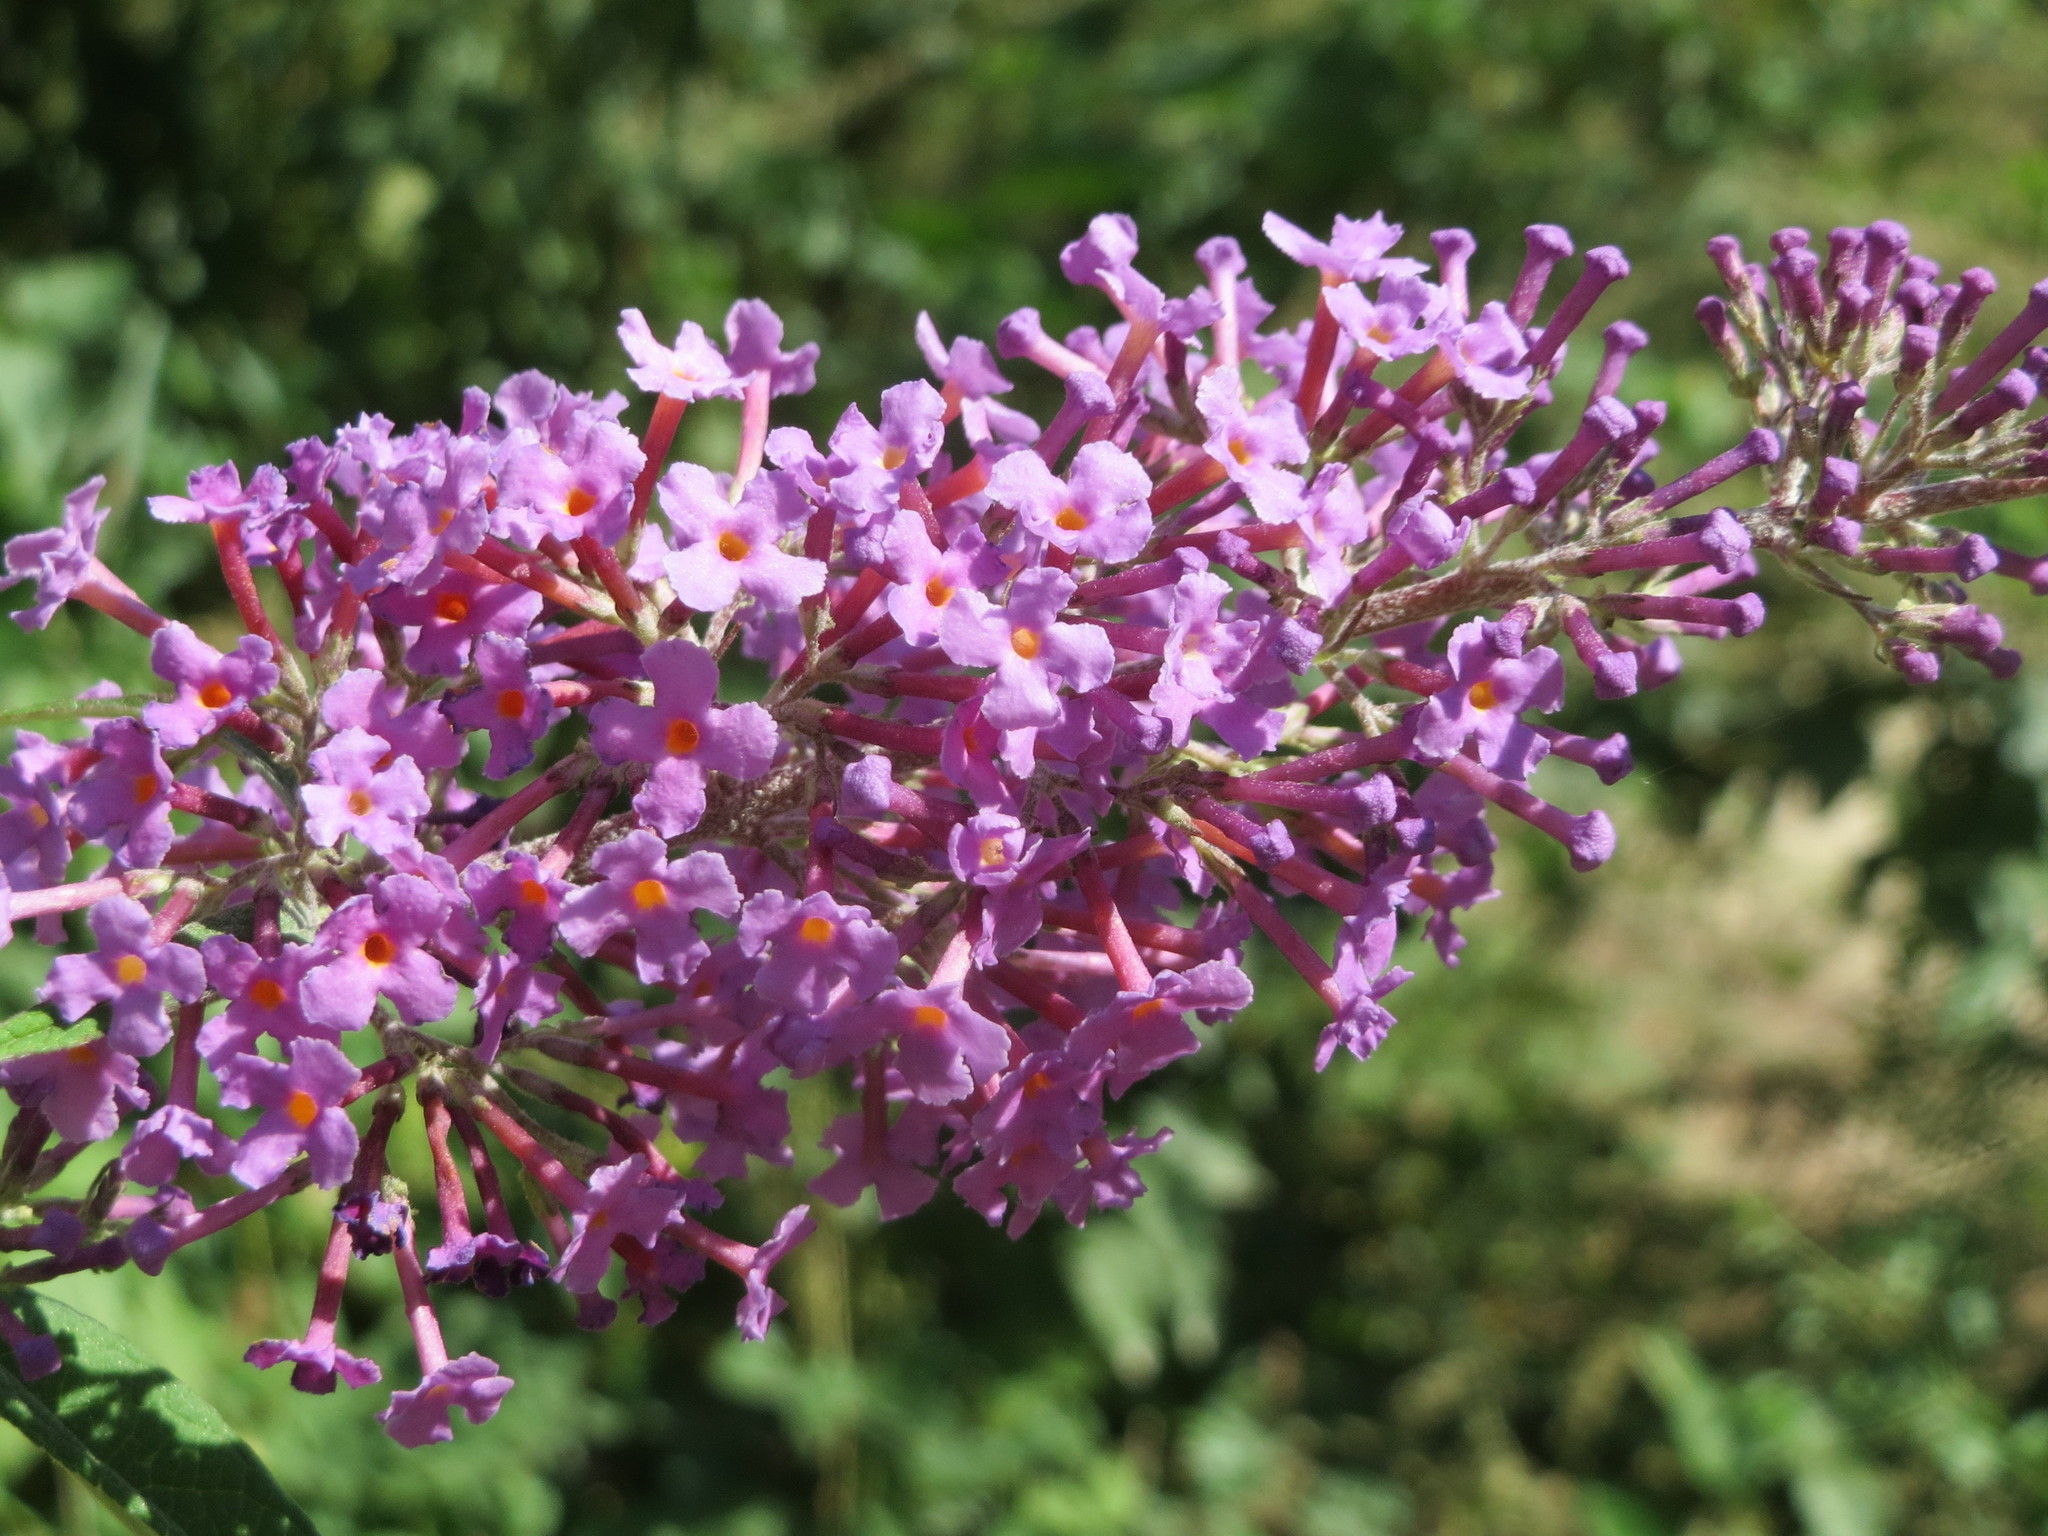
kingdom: Plantae
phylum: Tracheophyta
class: Magnoliopsida
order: Lamiales
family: Scrophulariaceae
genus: Buddleja
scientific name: Buddleja davidii
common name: Butterfly-bush
